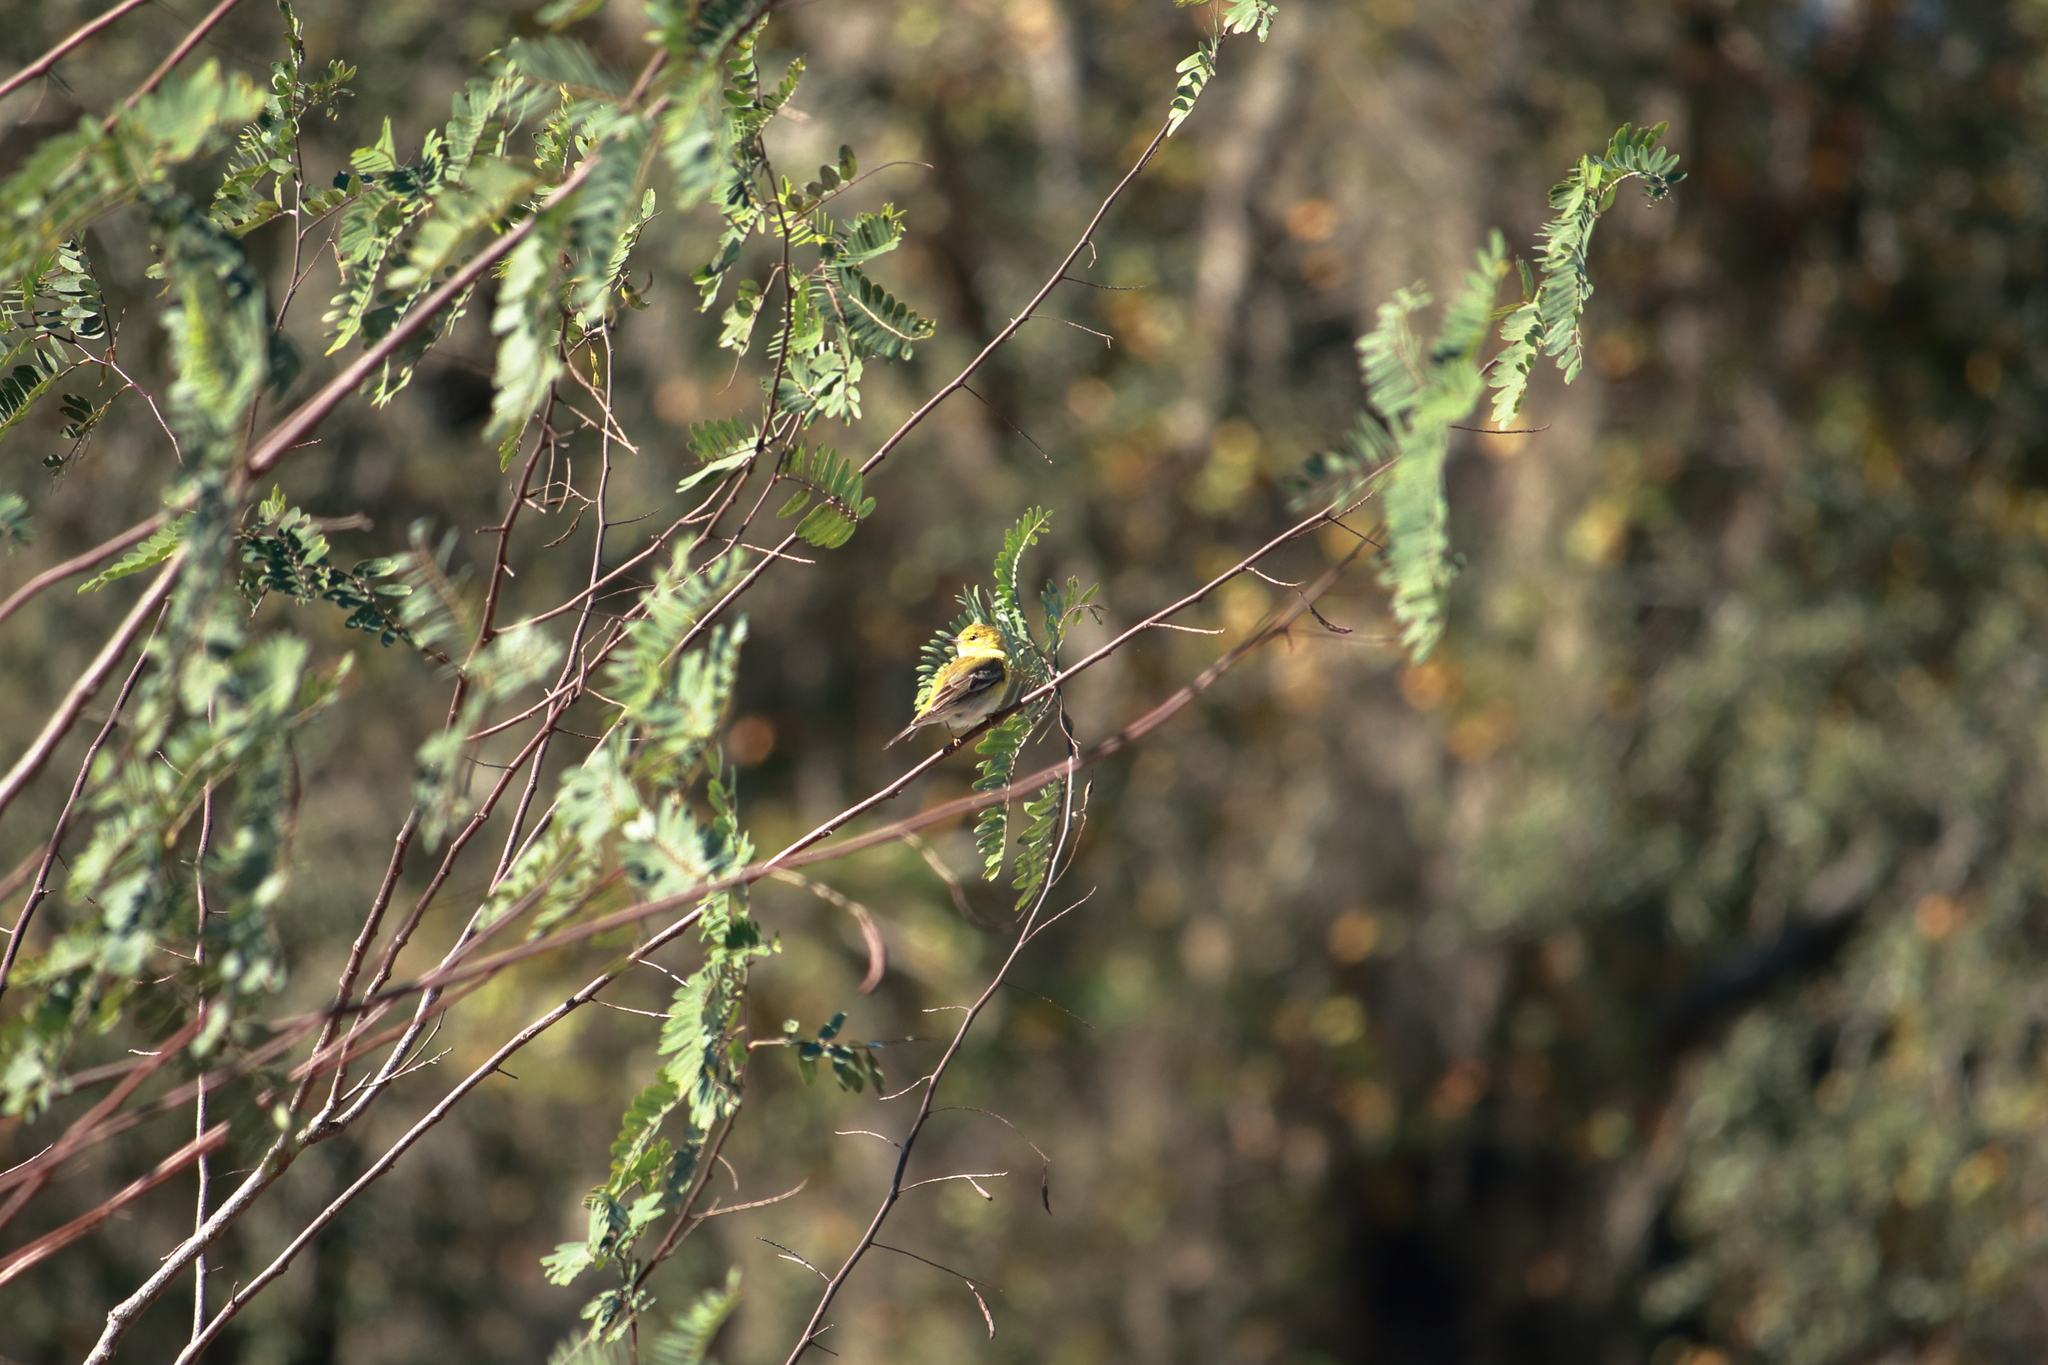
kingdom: Animalia
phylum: Chordata
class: Aves
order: Passeriformes
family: Parulidae
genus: Setophaga
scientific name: Setophaga pinus
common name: Pine warbler
